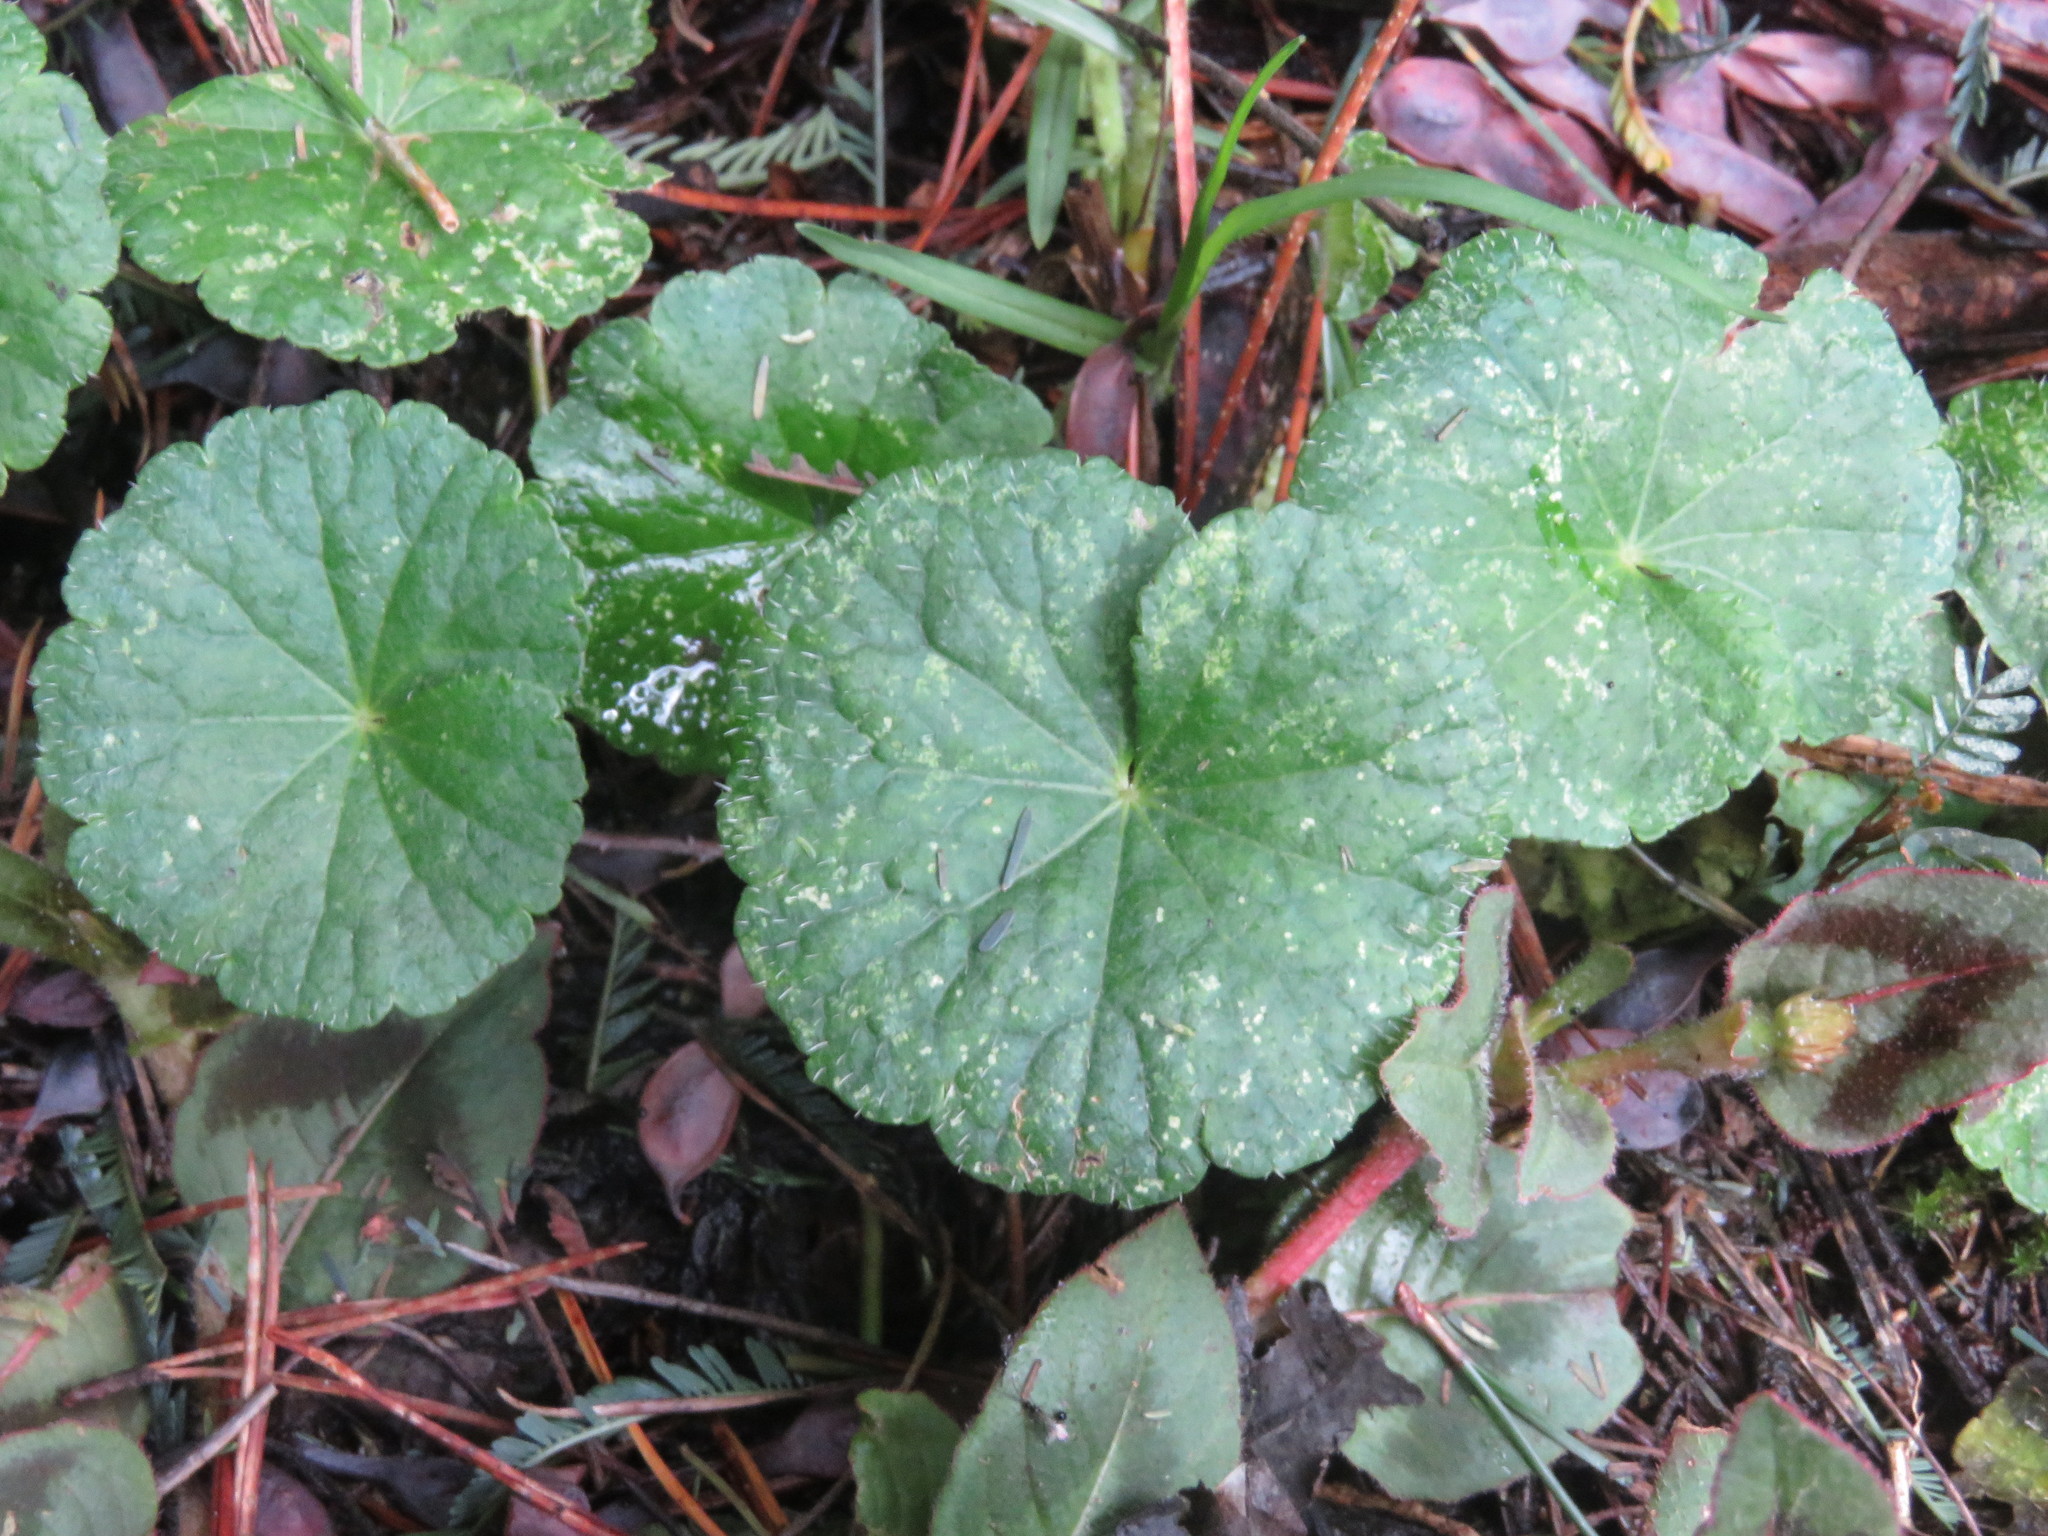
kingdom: Plantae
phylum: Tracheophyta
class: Magnoliopsida
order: Apiales
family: Araliaceae
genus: Hydrocotyle
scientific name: Hydrocotyle bonplandii
